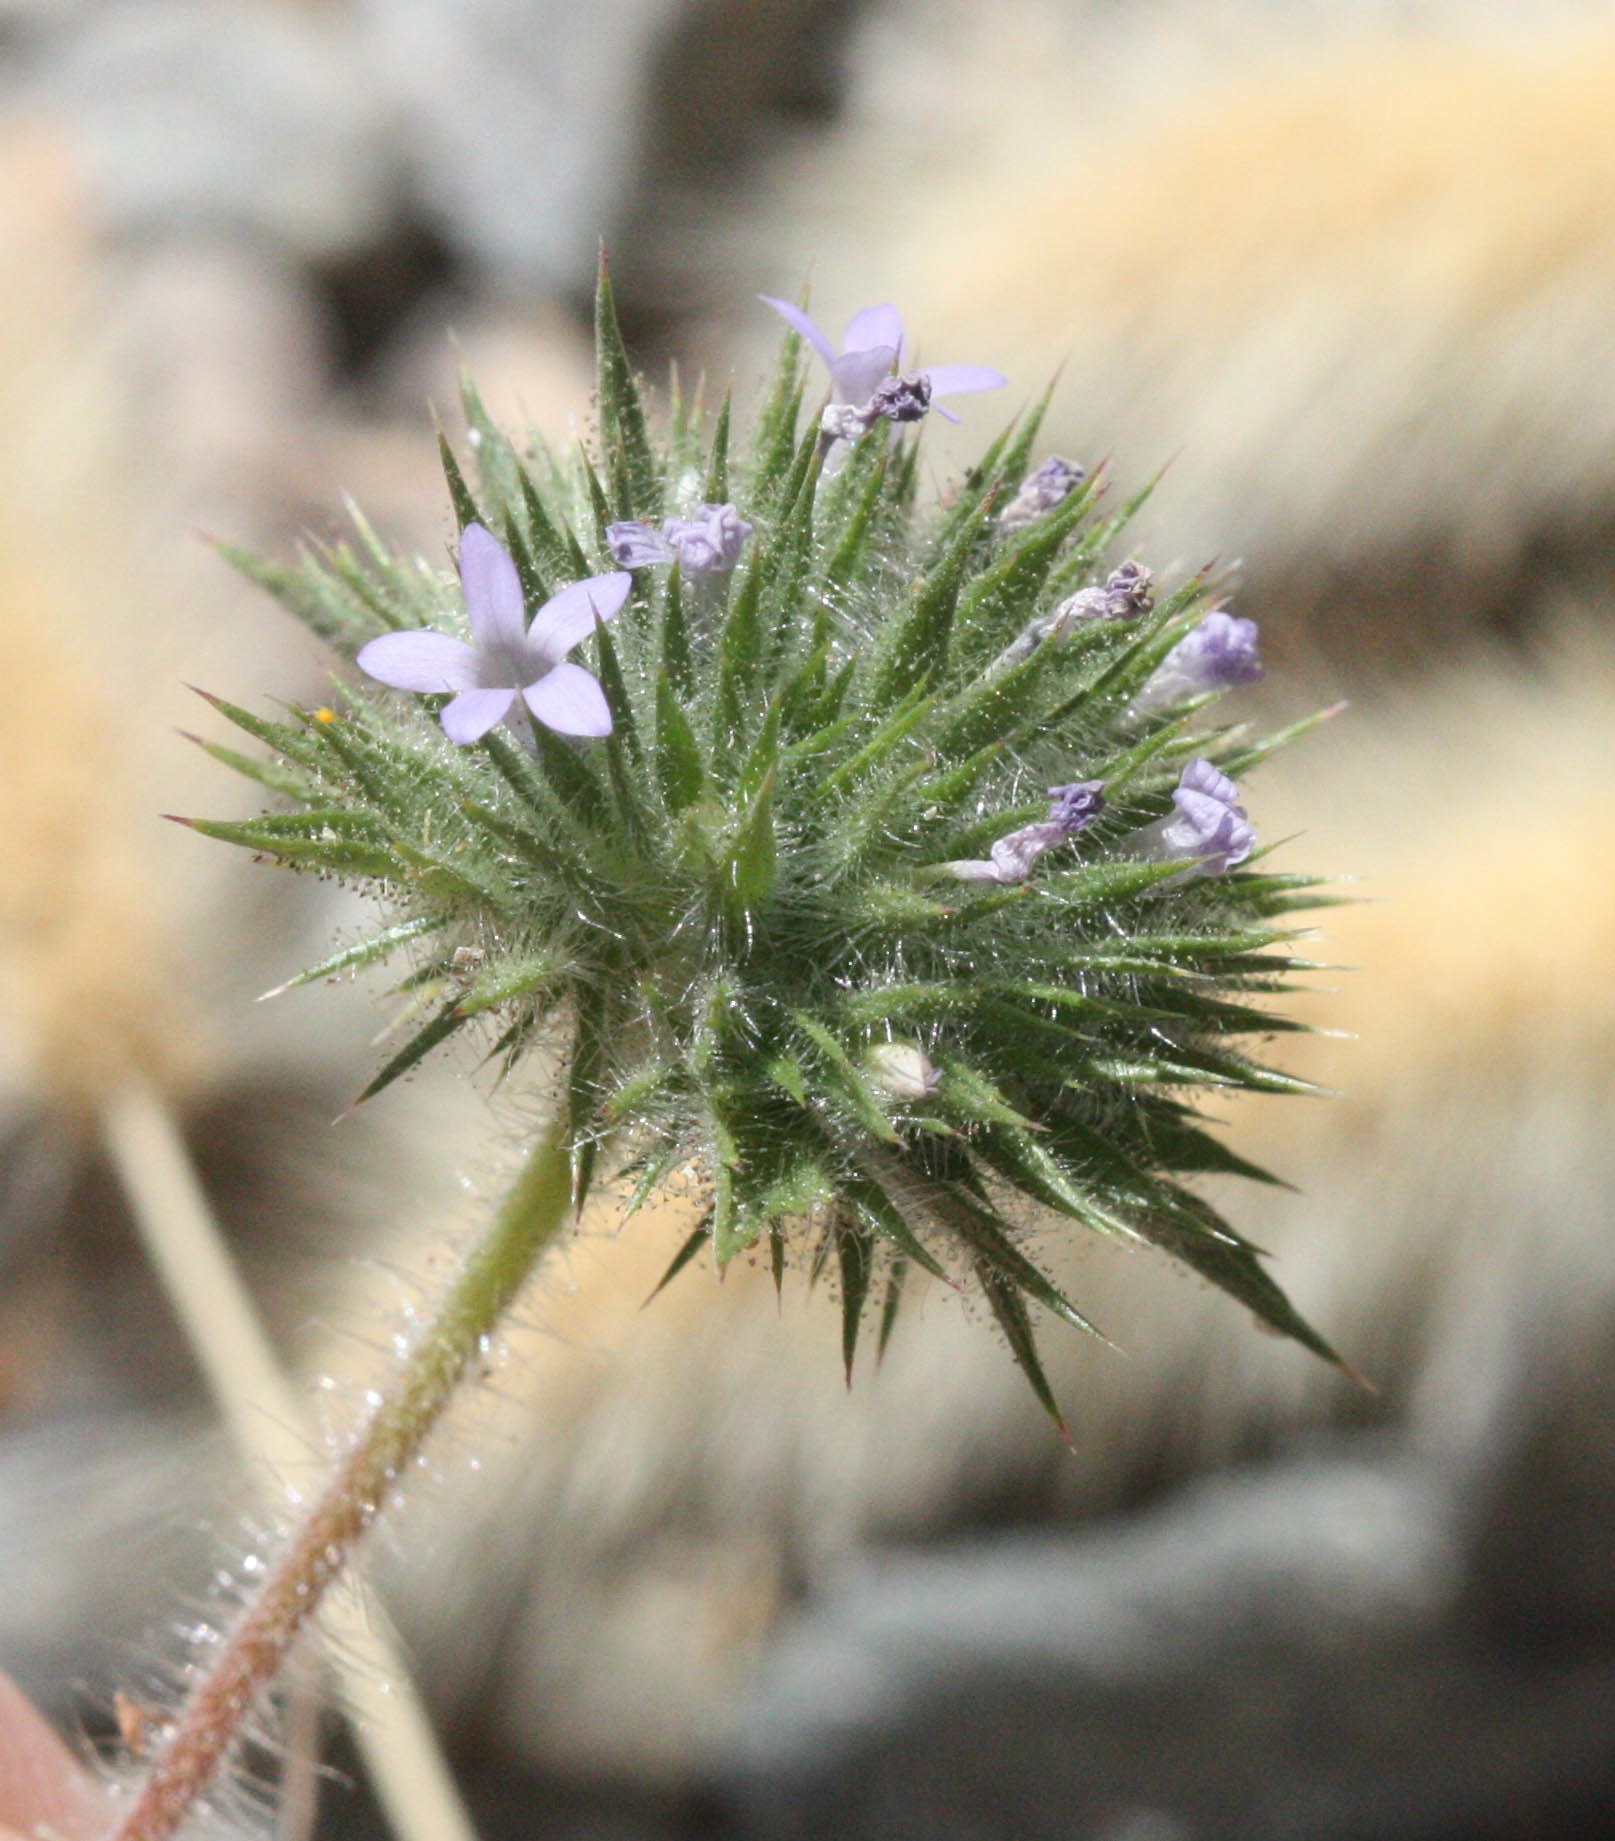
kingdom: Plantae
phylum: Tracheophyta
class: Magnoliopsida
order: Ericales
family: Polemoniaceae
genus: Navarretia
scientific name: Navarretia squarrosa
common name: Skunkweed
